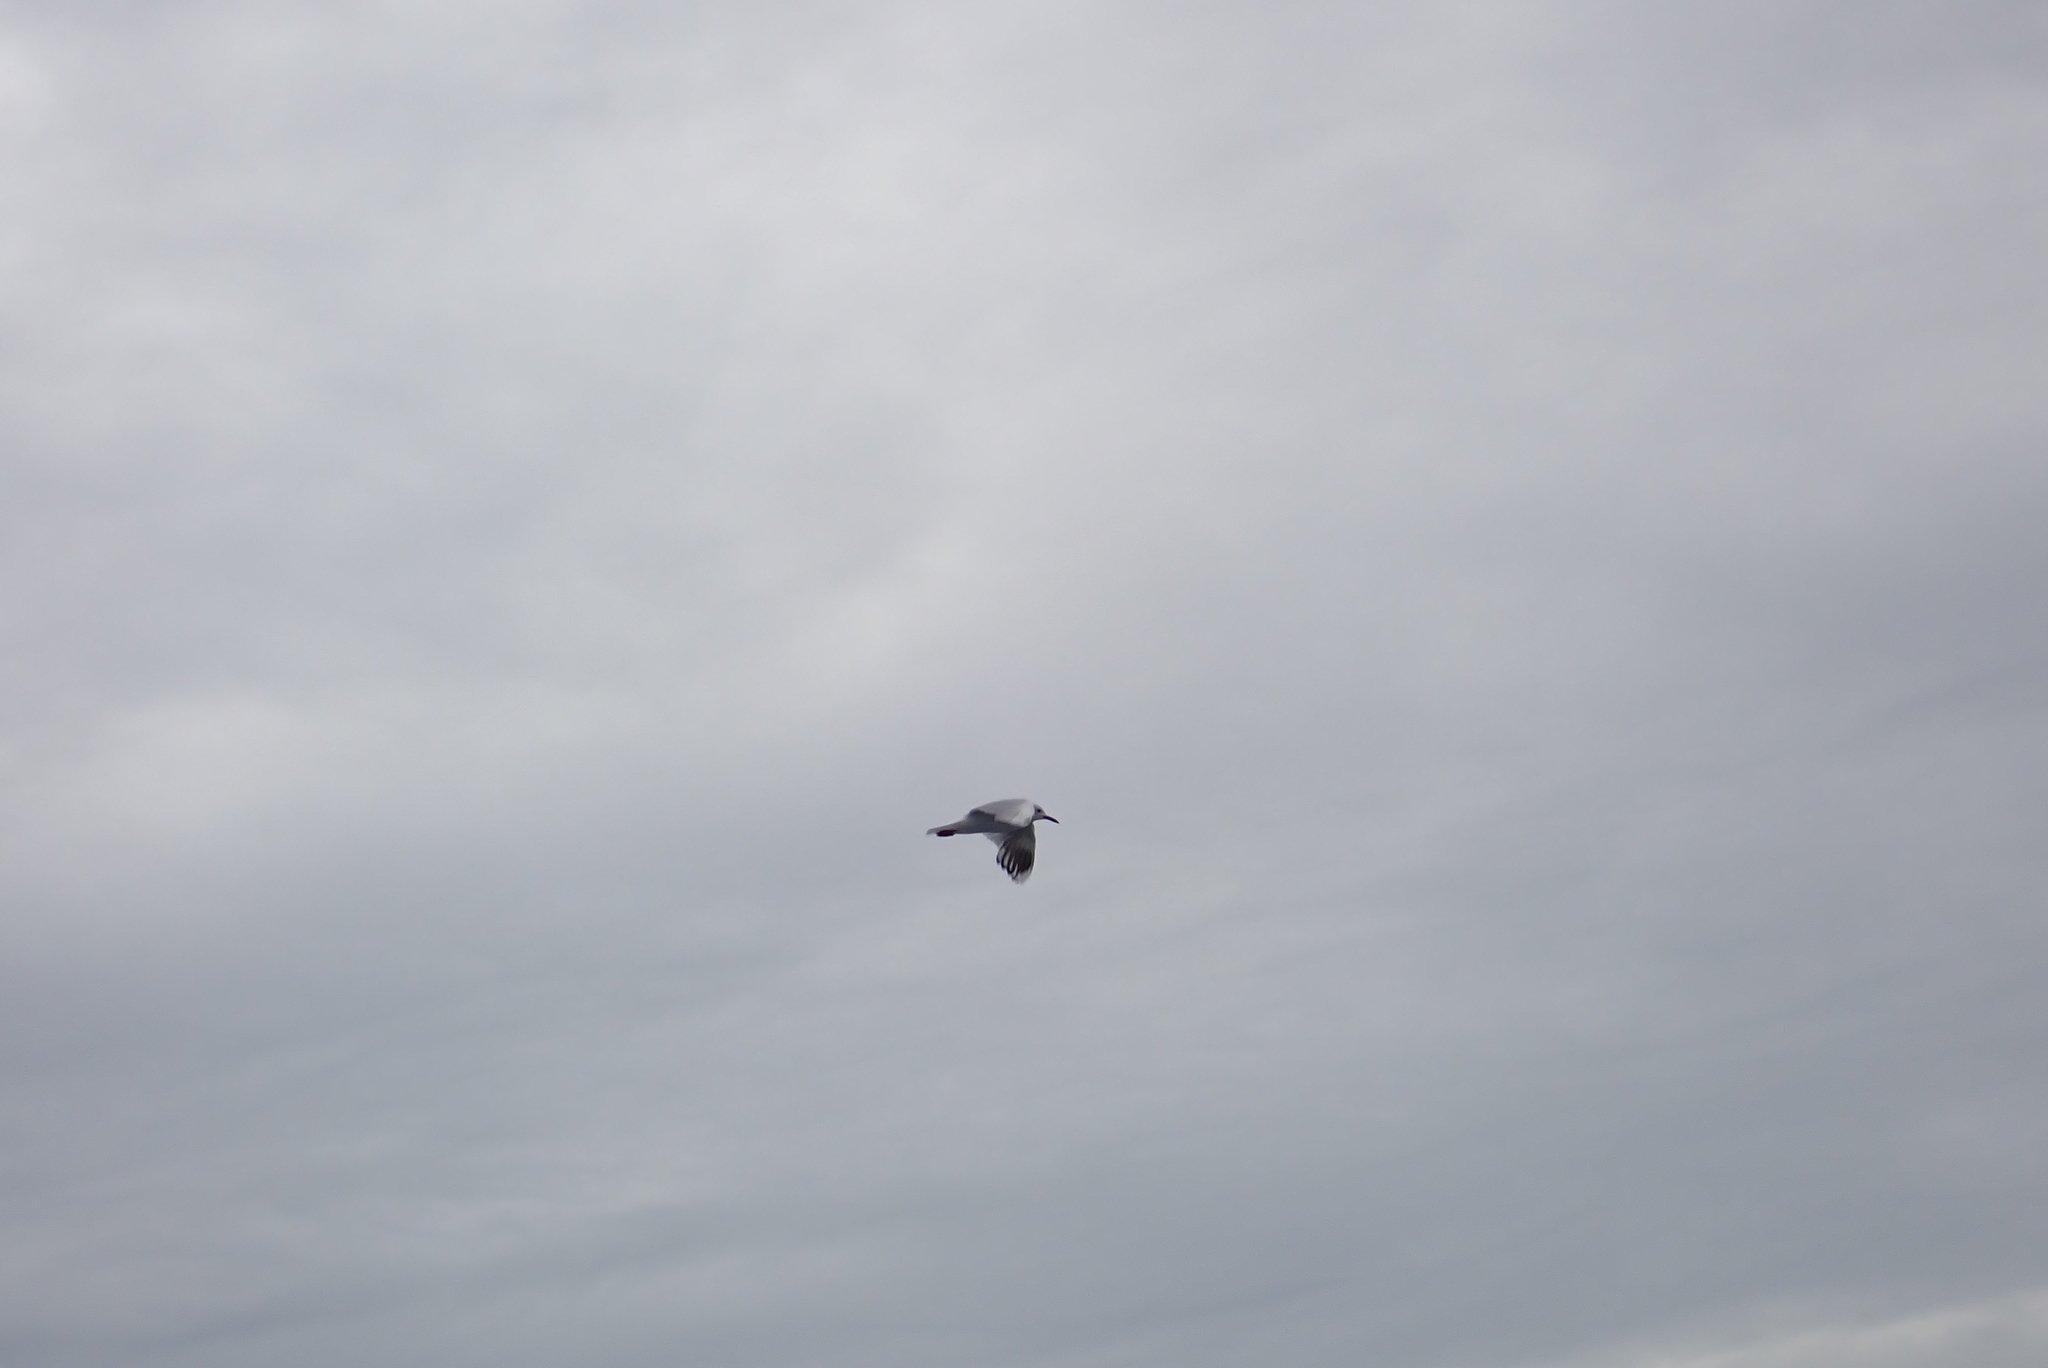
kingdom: Animalia
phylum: Chordata
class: Aves
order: Charadriiformes
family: Laridae
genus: Chroicocephalus
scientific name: Chroicocephalus bulleri
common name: Black-billed gull
